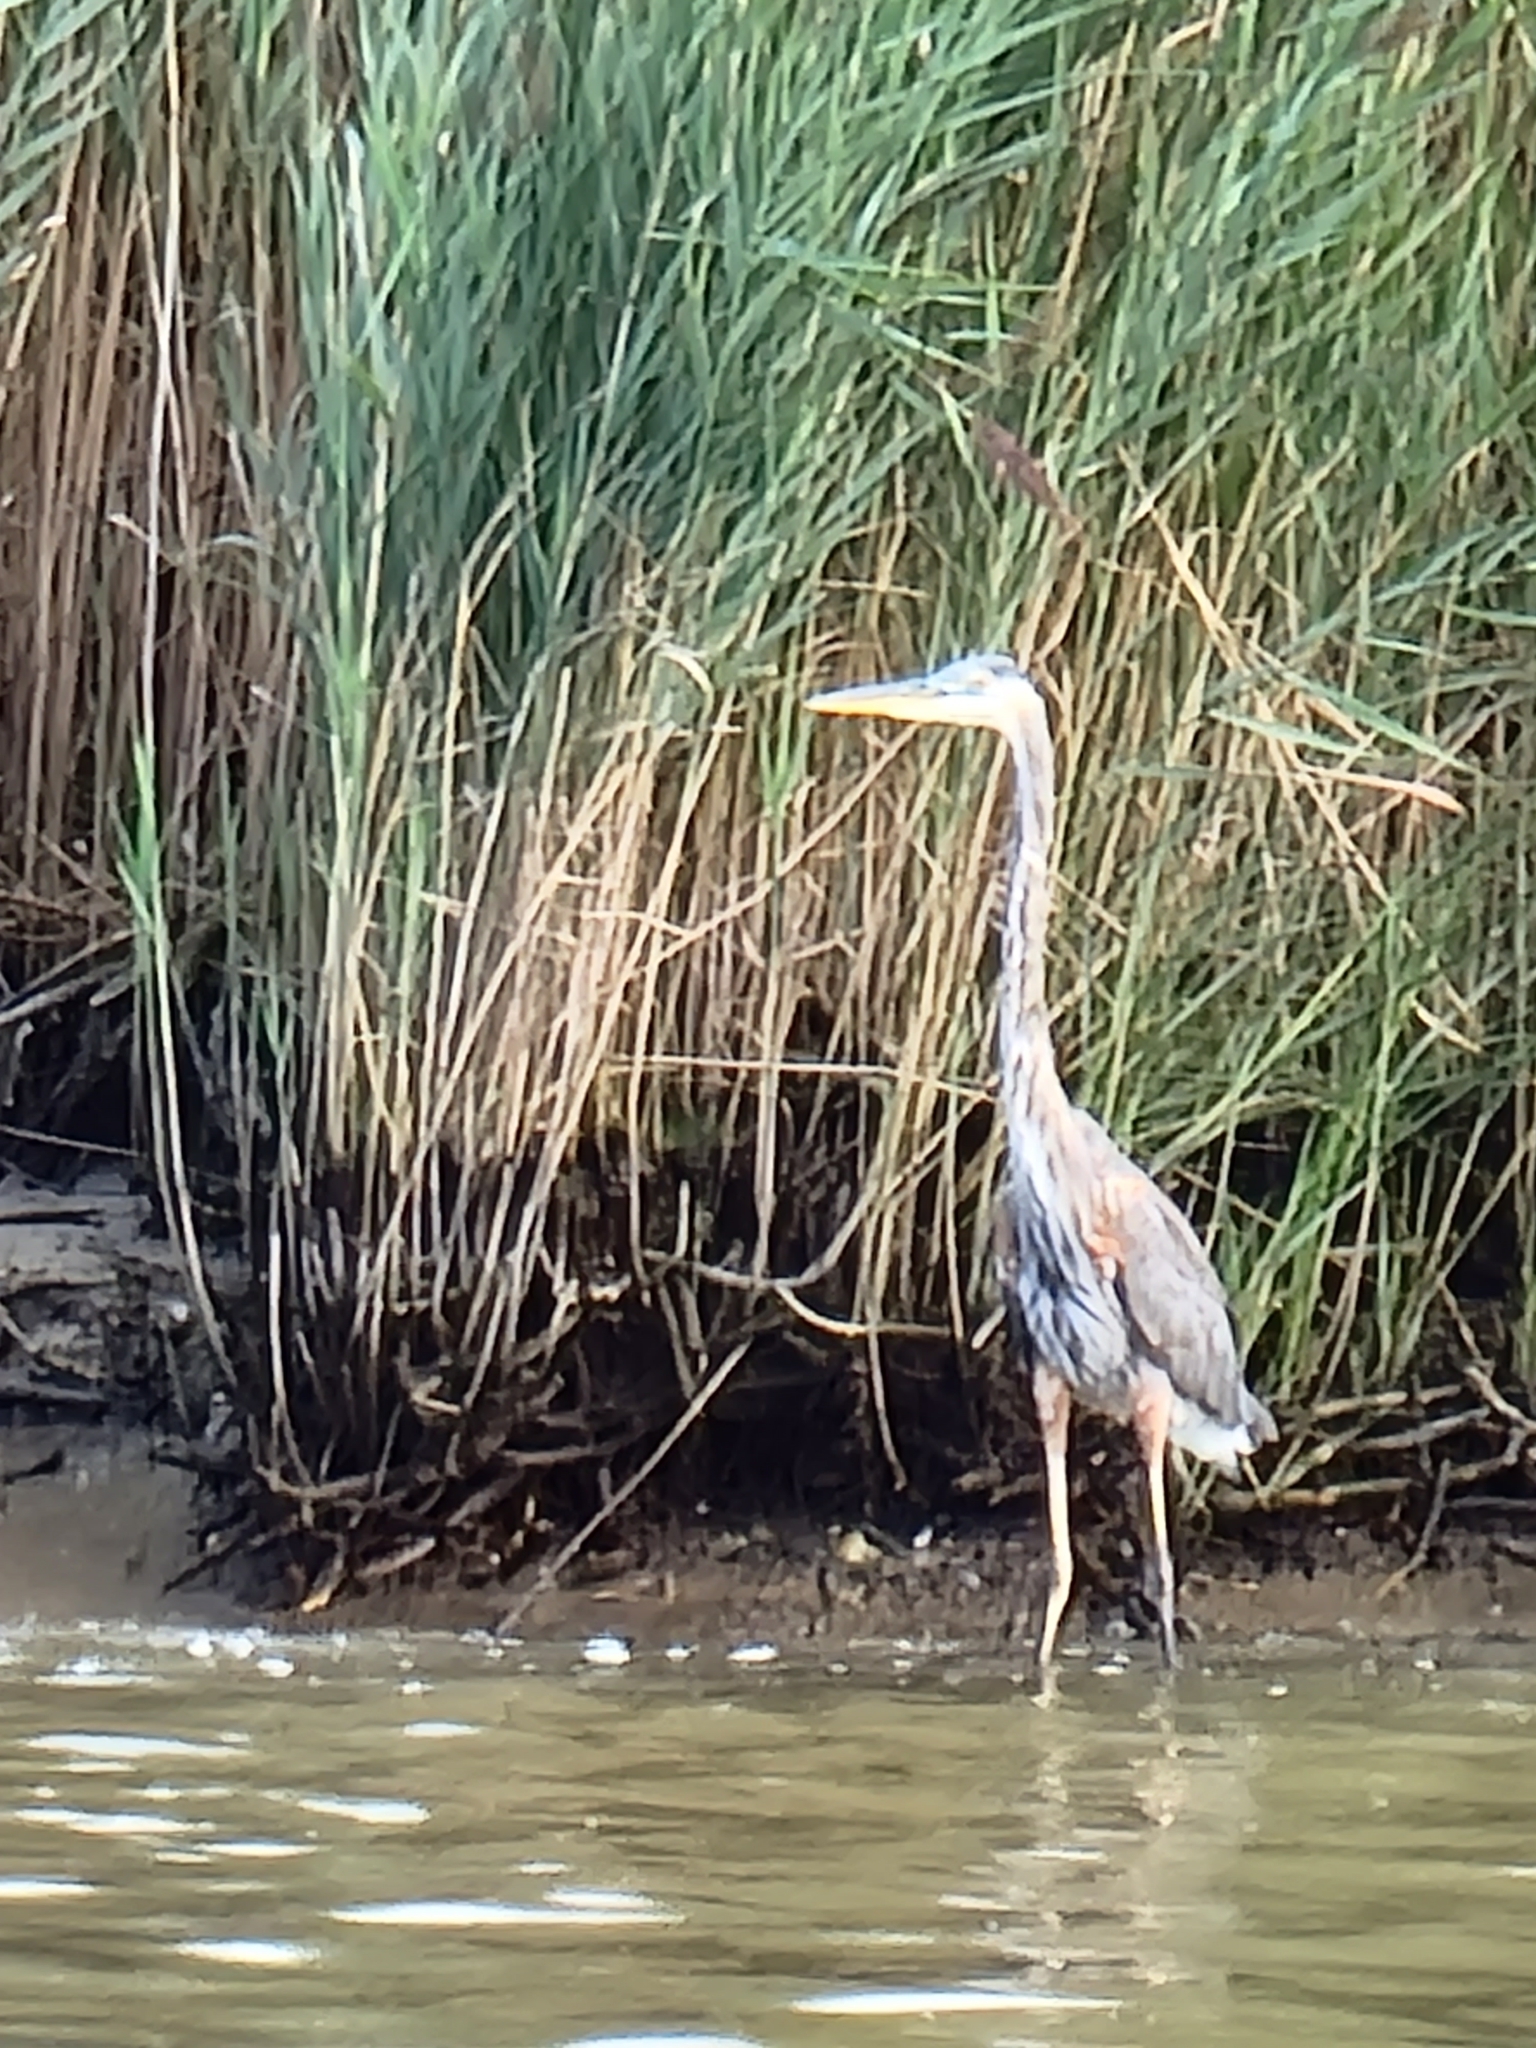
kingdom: Animalia
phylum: Chordata
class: Aves
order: Pelecaniformes
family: Ardeidae
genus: Ardea
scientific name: Ardea herodias
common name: Great blue heron
